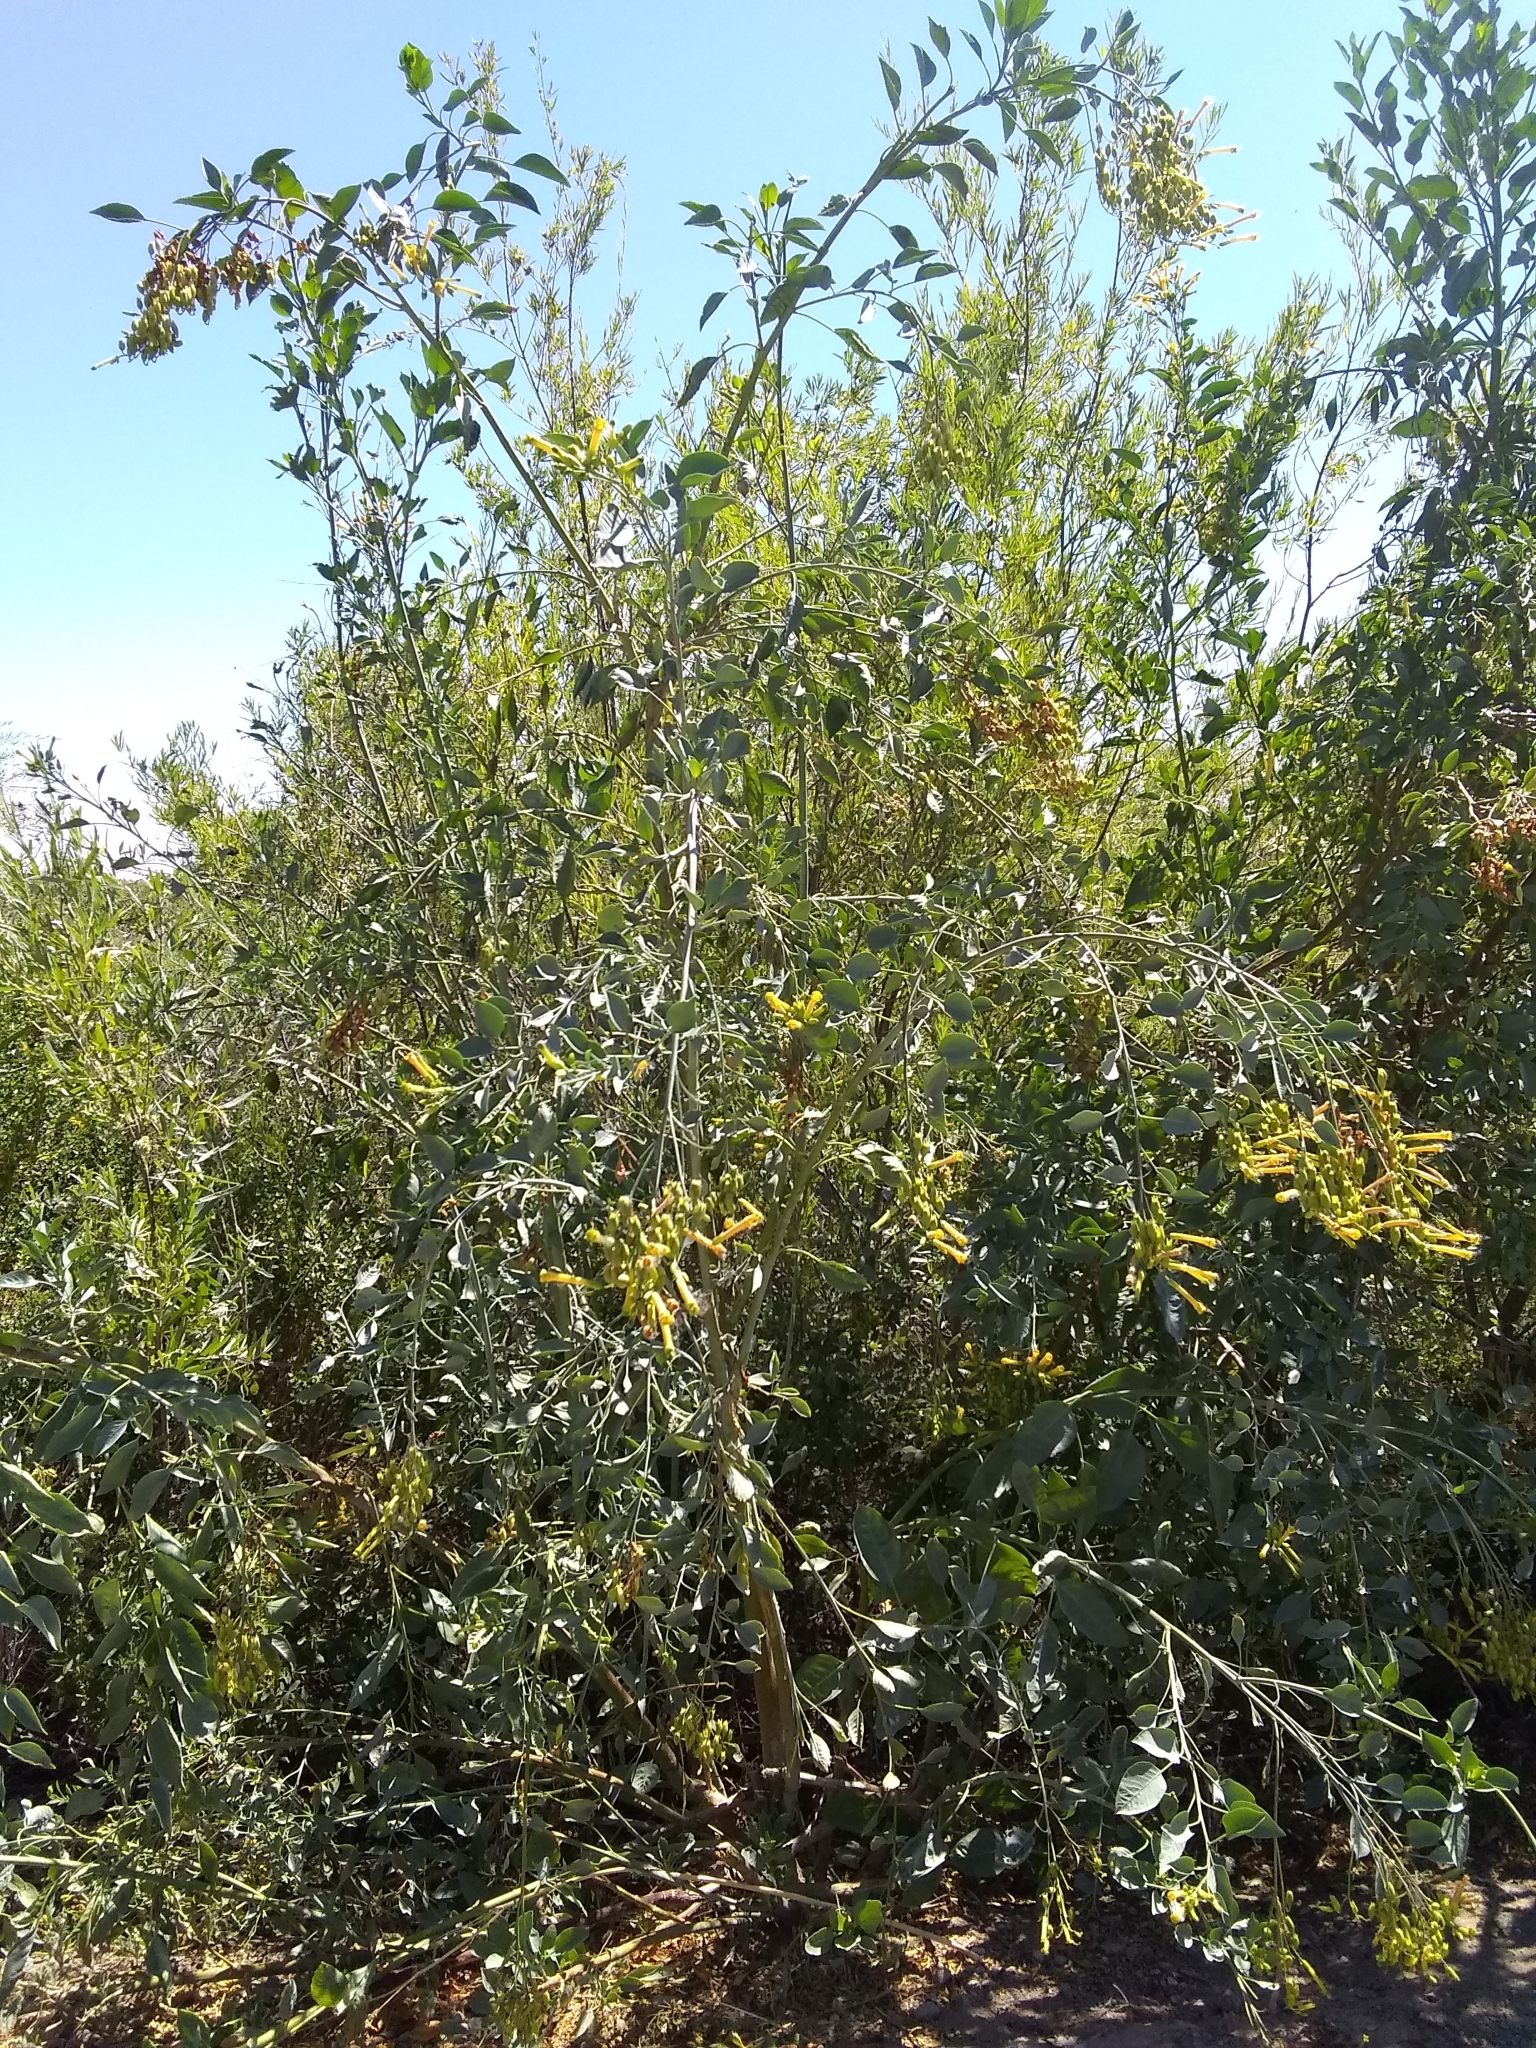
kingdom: Plantae
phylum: Tracheophyta
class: Magnoliopsida
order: Solanales
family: Solanaceae
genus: Nicotiana
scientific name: Nicotiana glauca
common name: Tree tobacco
